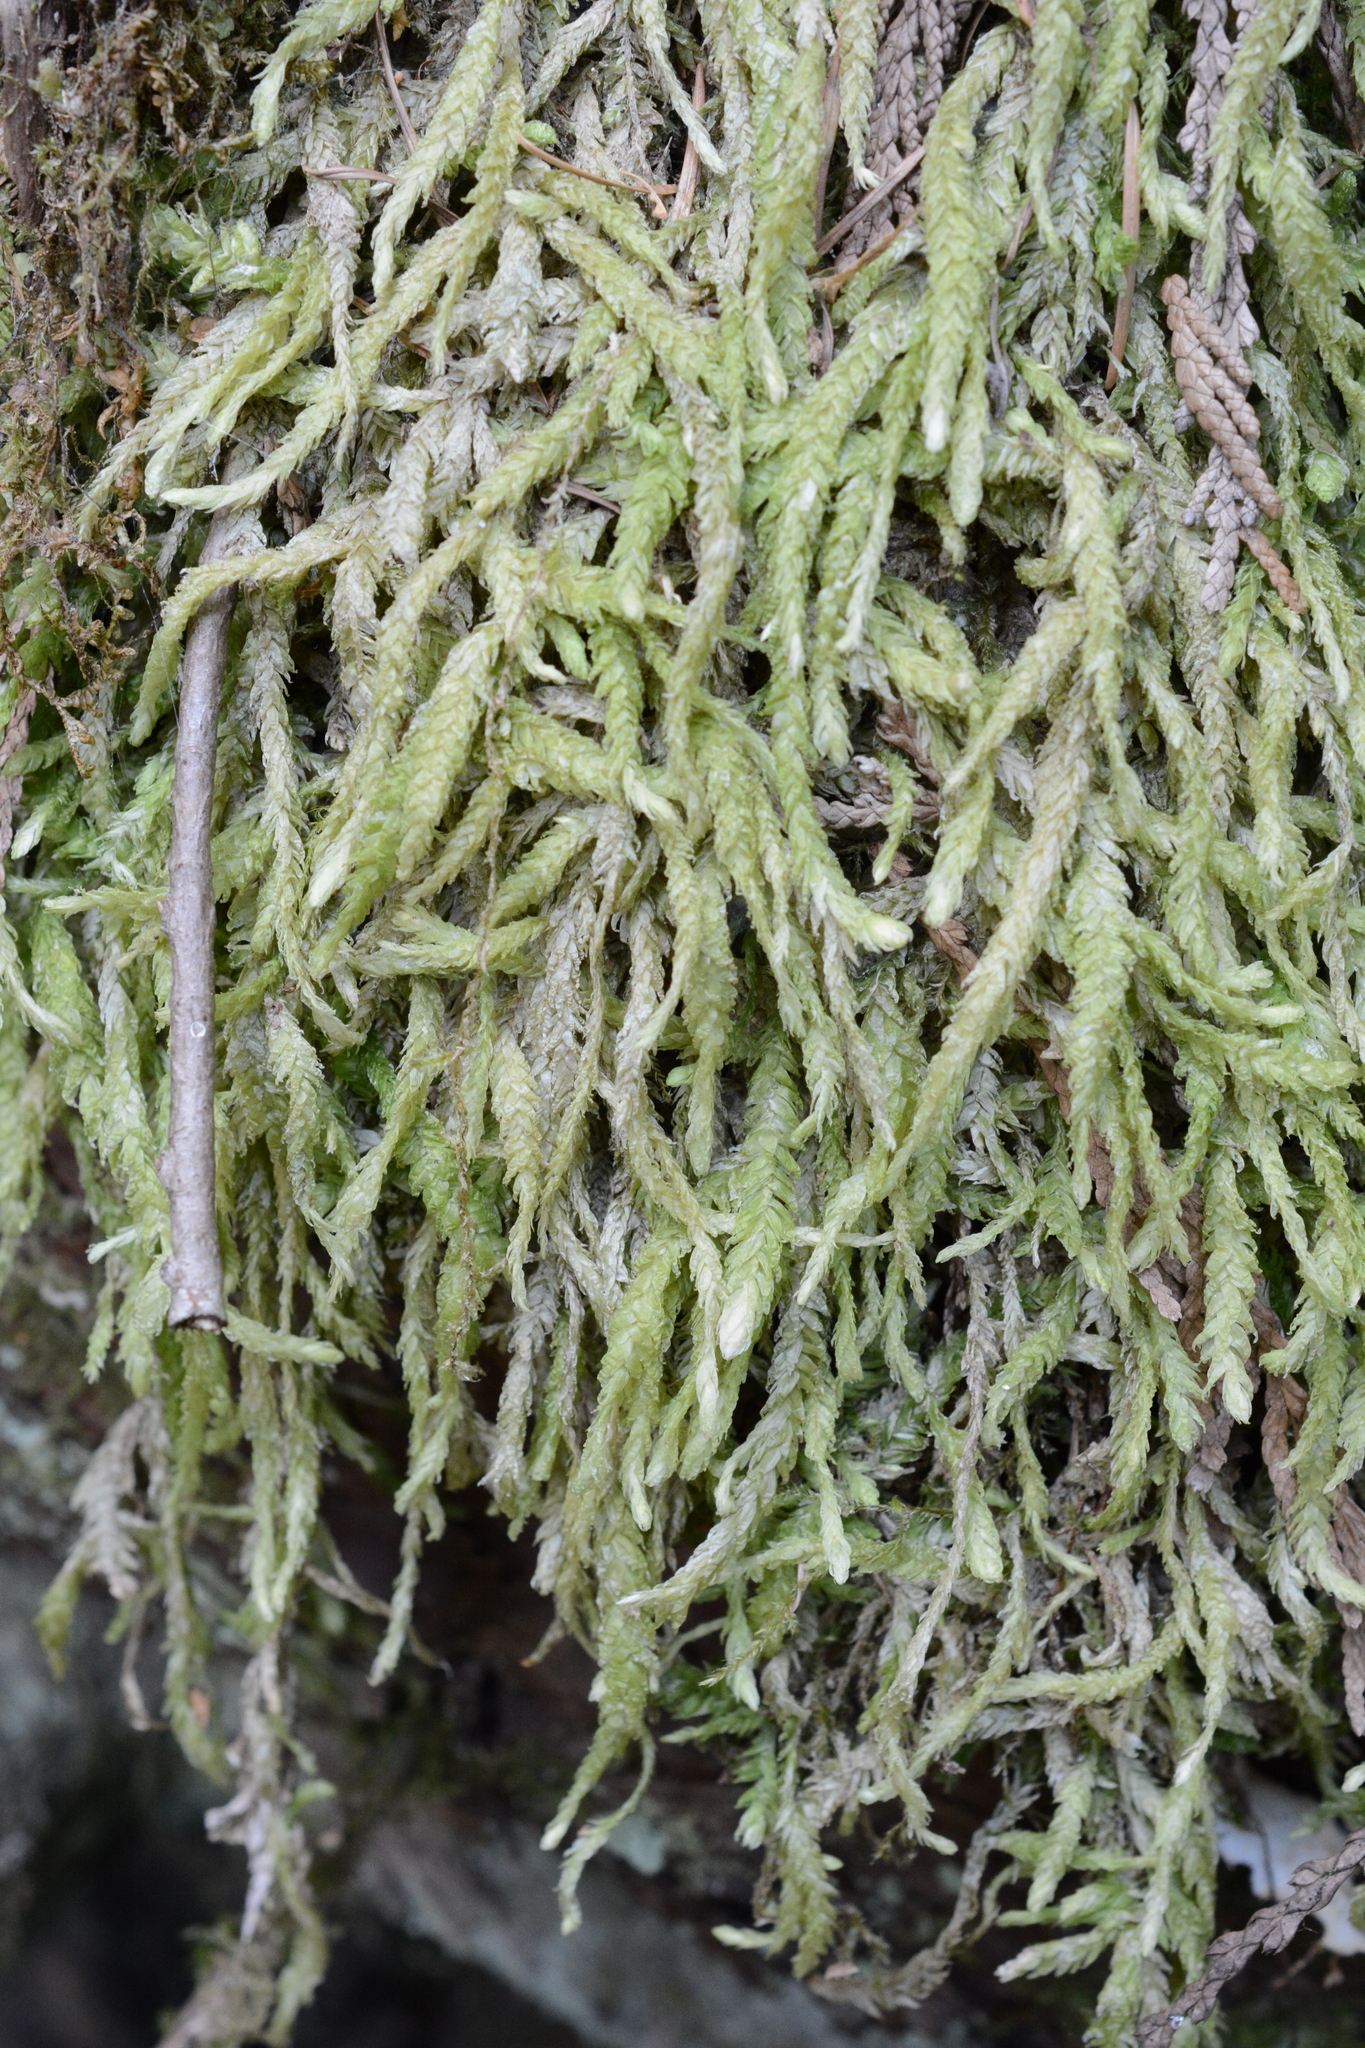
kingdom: Plantae
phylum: Bryophyta
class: Bryopsida
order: Hypnales
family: Plagiotheciaceae
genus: Plagiothecium
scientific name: Plagiothecium undulatum
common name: Waved silk-moss
